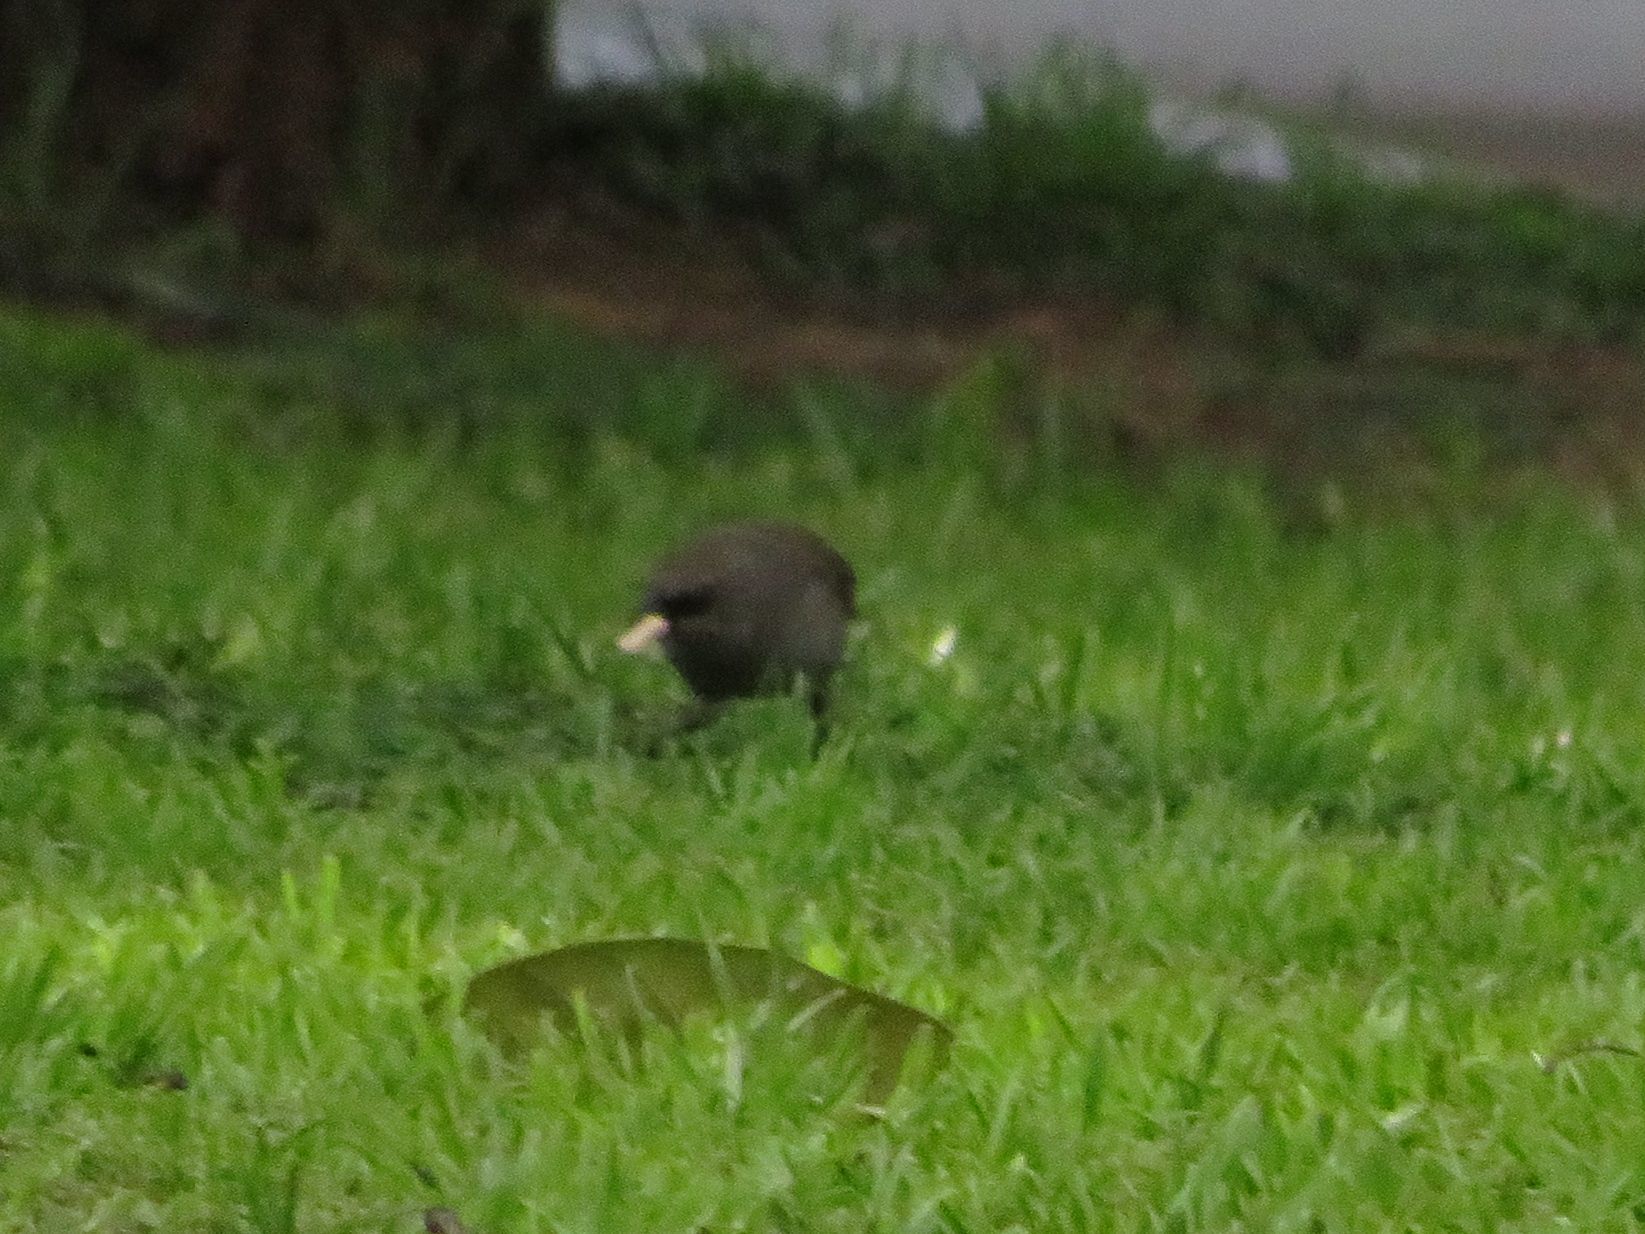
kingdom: Animalia
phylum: Chordata
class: Aves
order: Passeriformes
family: Icteridae
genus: Agelaioides
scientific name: Agelaioides badius
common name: Baywing
